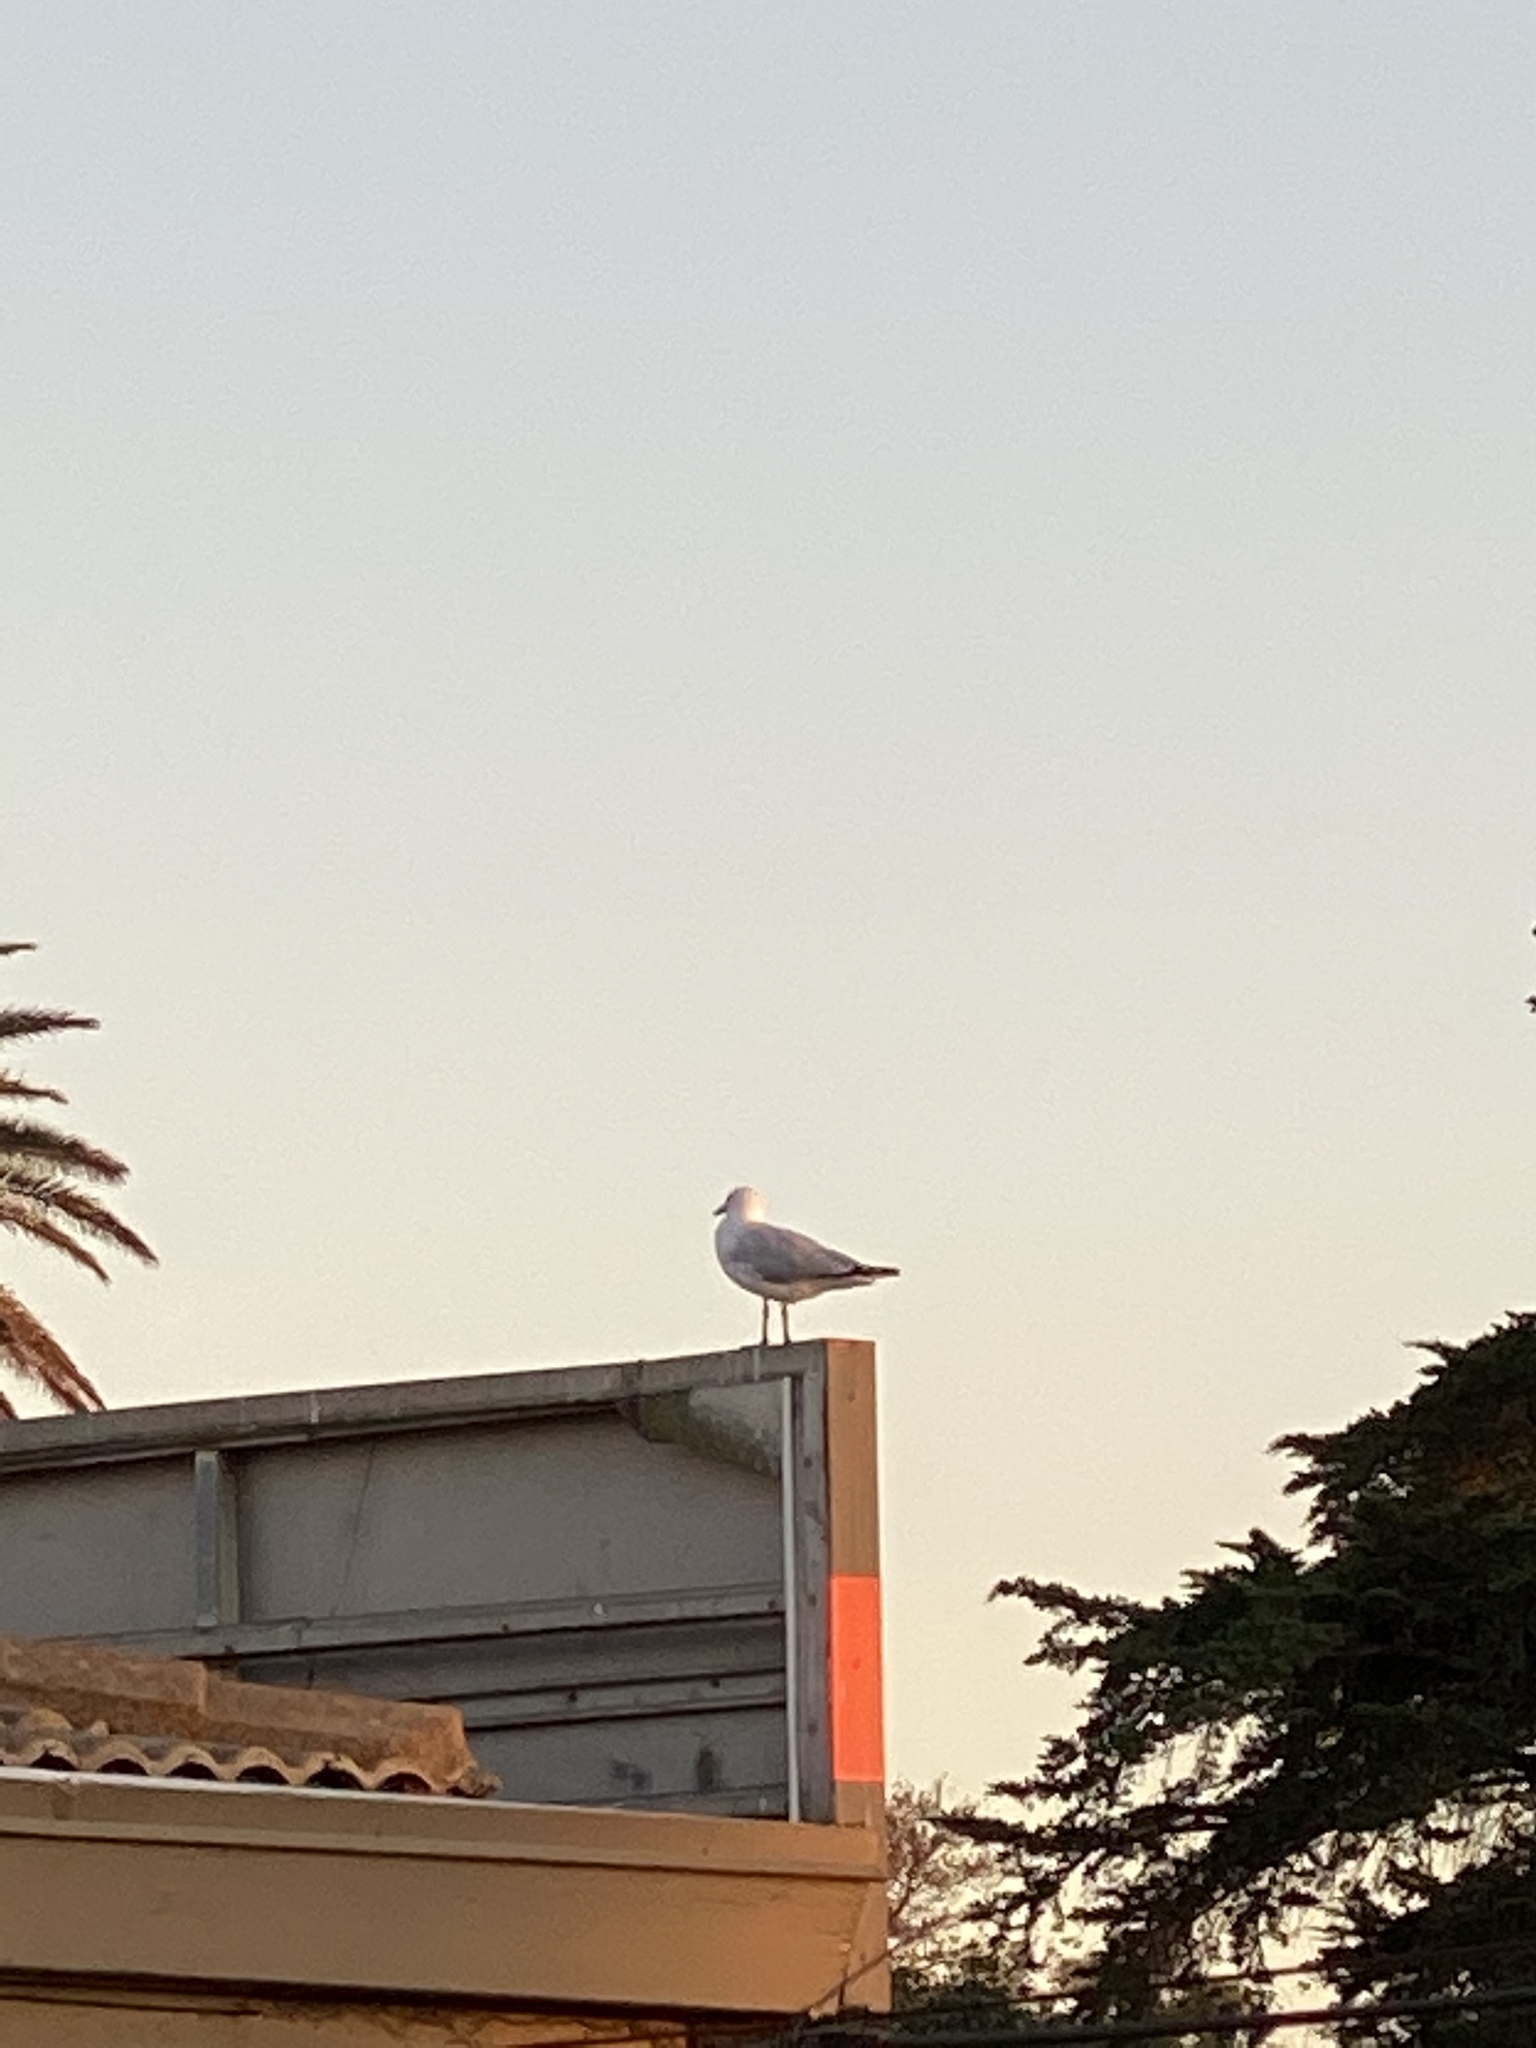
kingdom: Animalia
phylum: Chordata
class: Aves
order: Charadriiformes
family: Laridae
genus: Chroicocephalus
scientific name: Chroicocephalus novaehollandiae
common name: Silver gull
